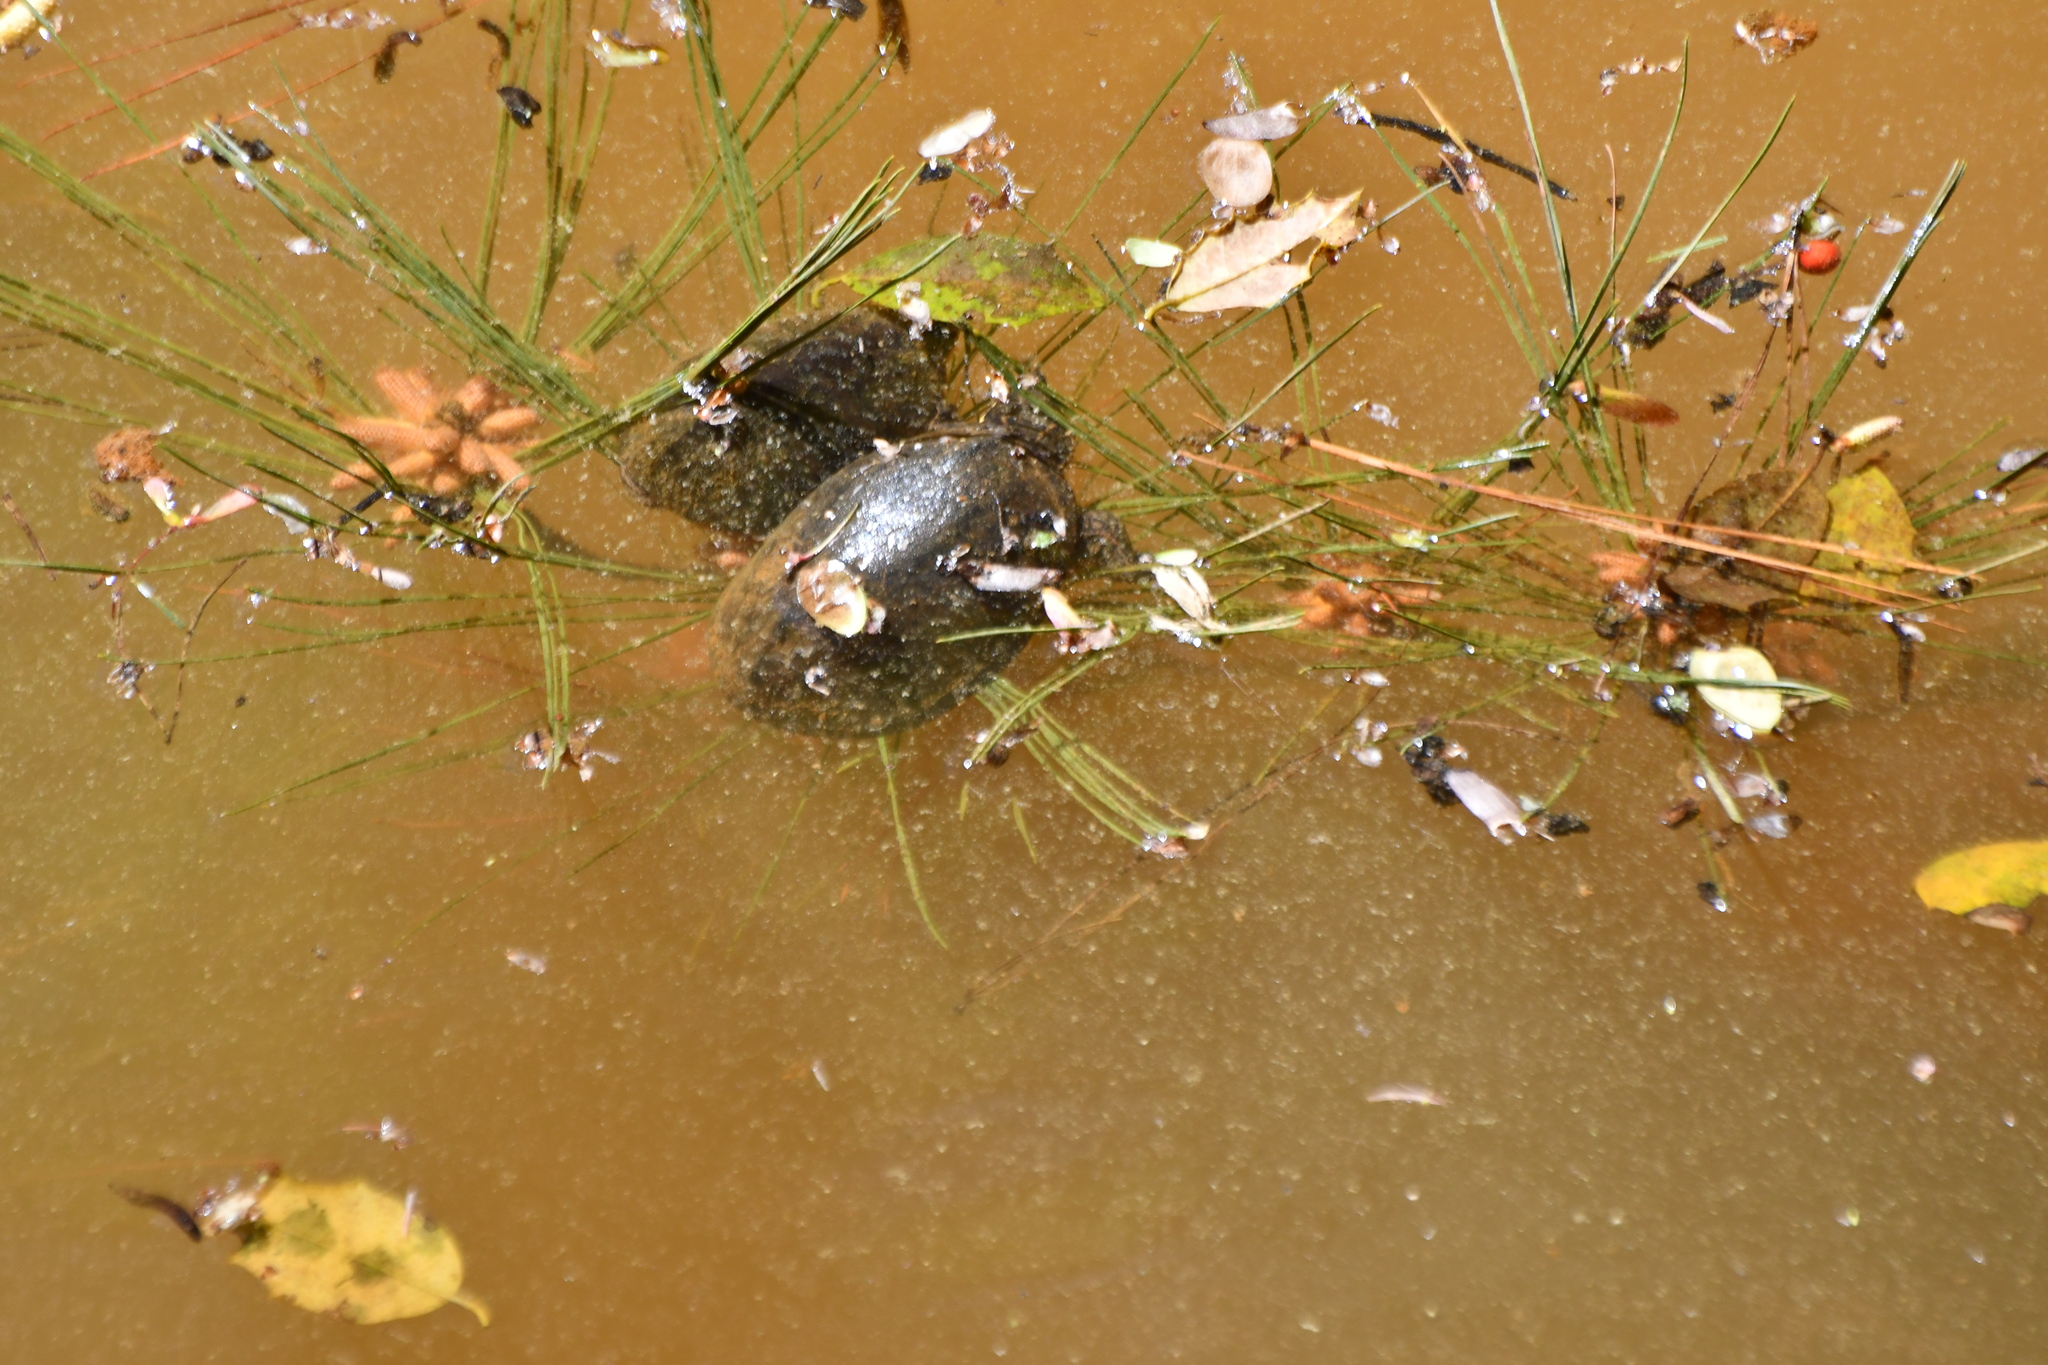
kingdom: Animalia
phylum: Chordata
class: Testudines
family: Kinosternidae
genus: Sternotherus
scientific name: Sternotherus odoratus
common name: Common musk turtle
